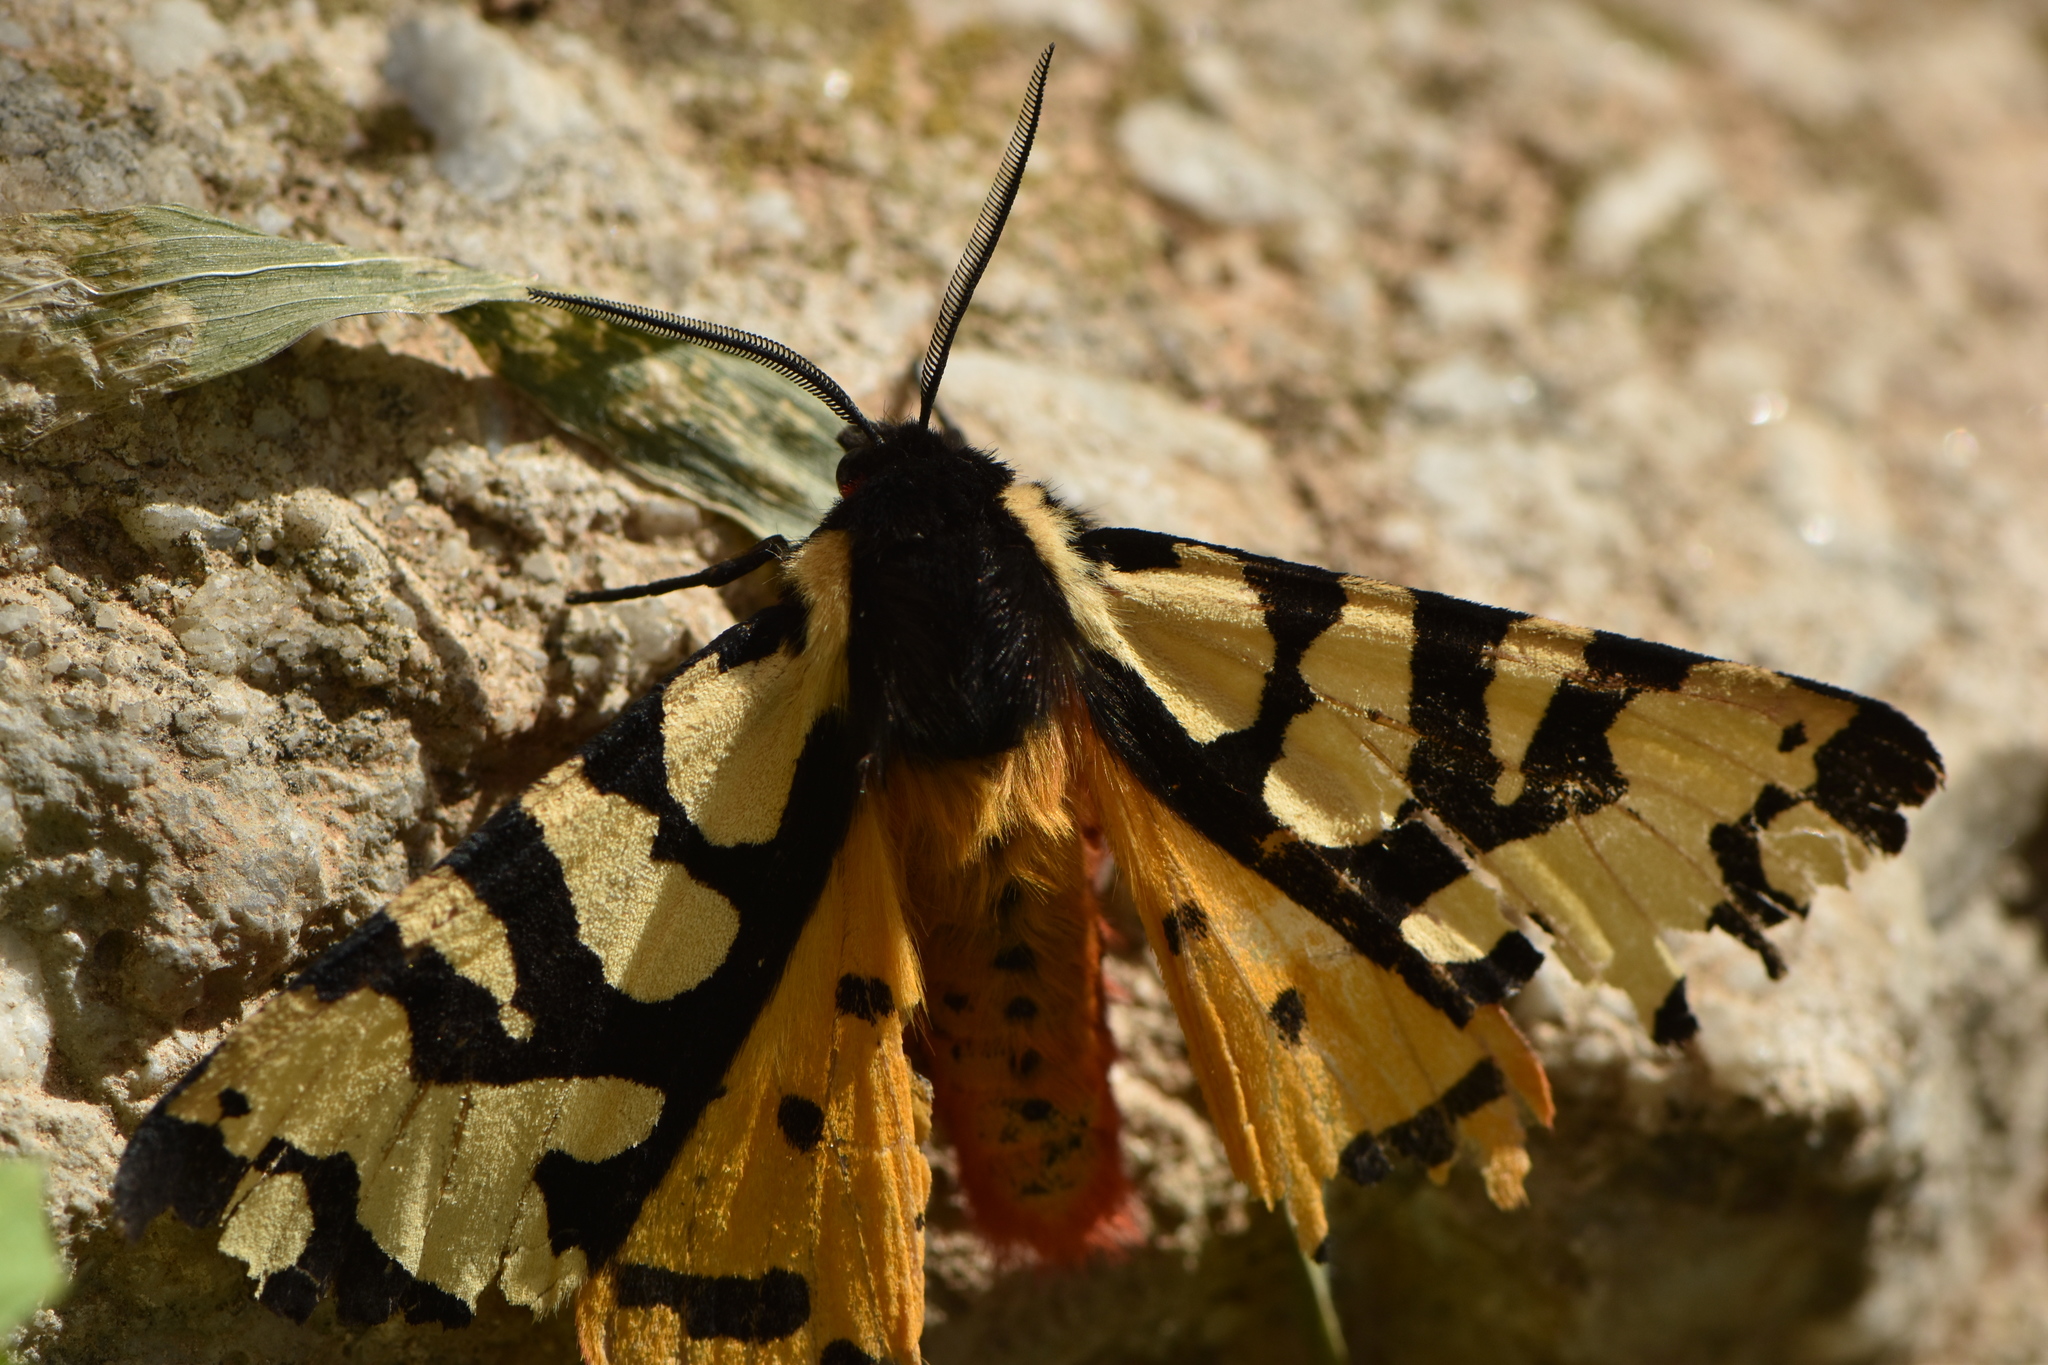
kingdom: Animalia
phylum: Arthropoda
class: Insecta
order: Lepidoptera
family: Erebidae
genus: Epicallia
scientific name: Epicallia villica
